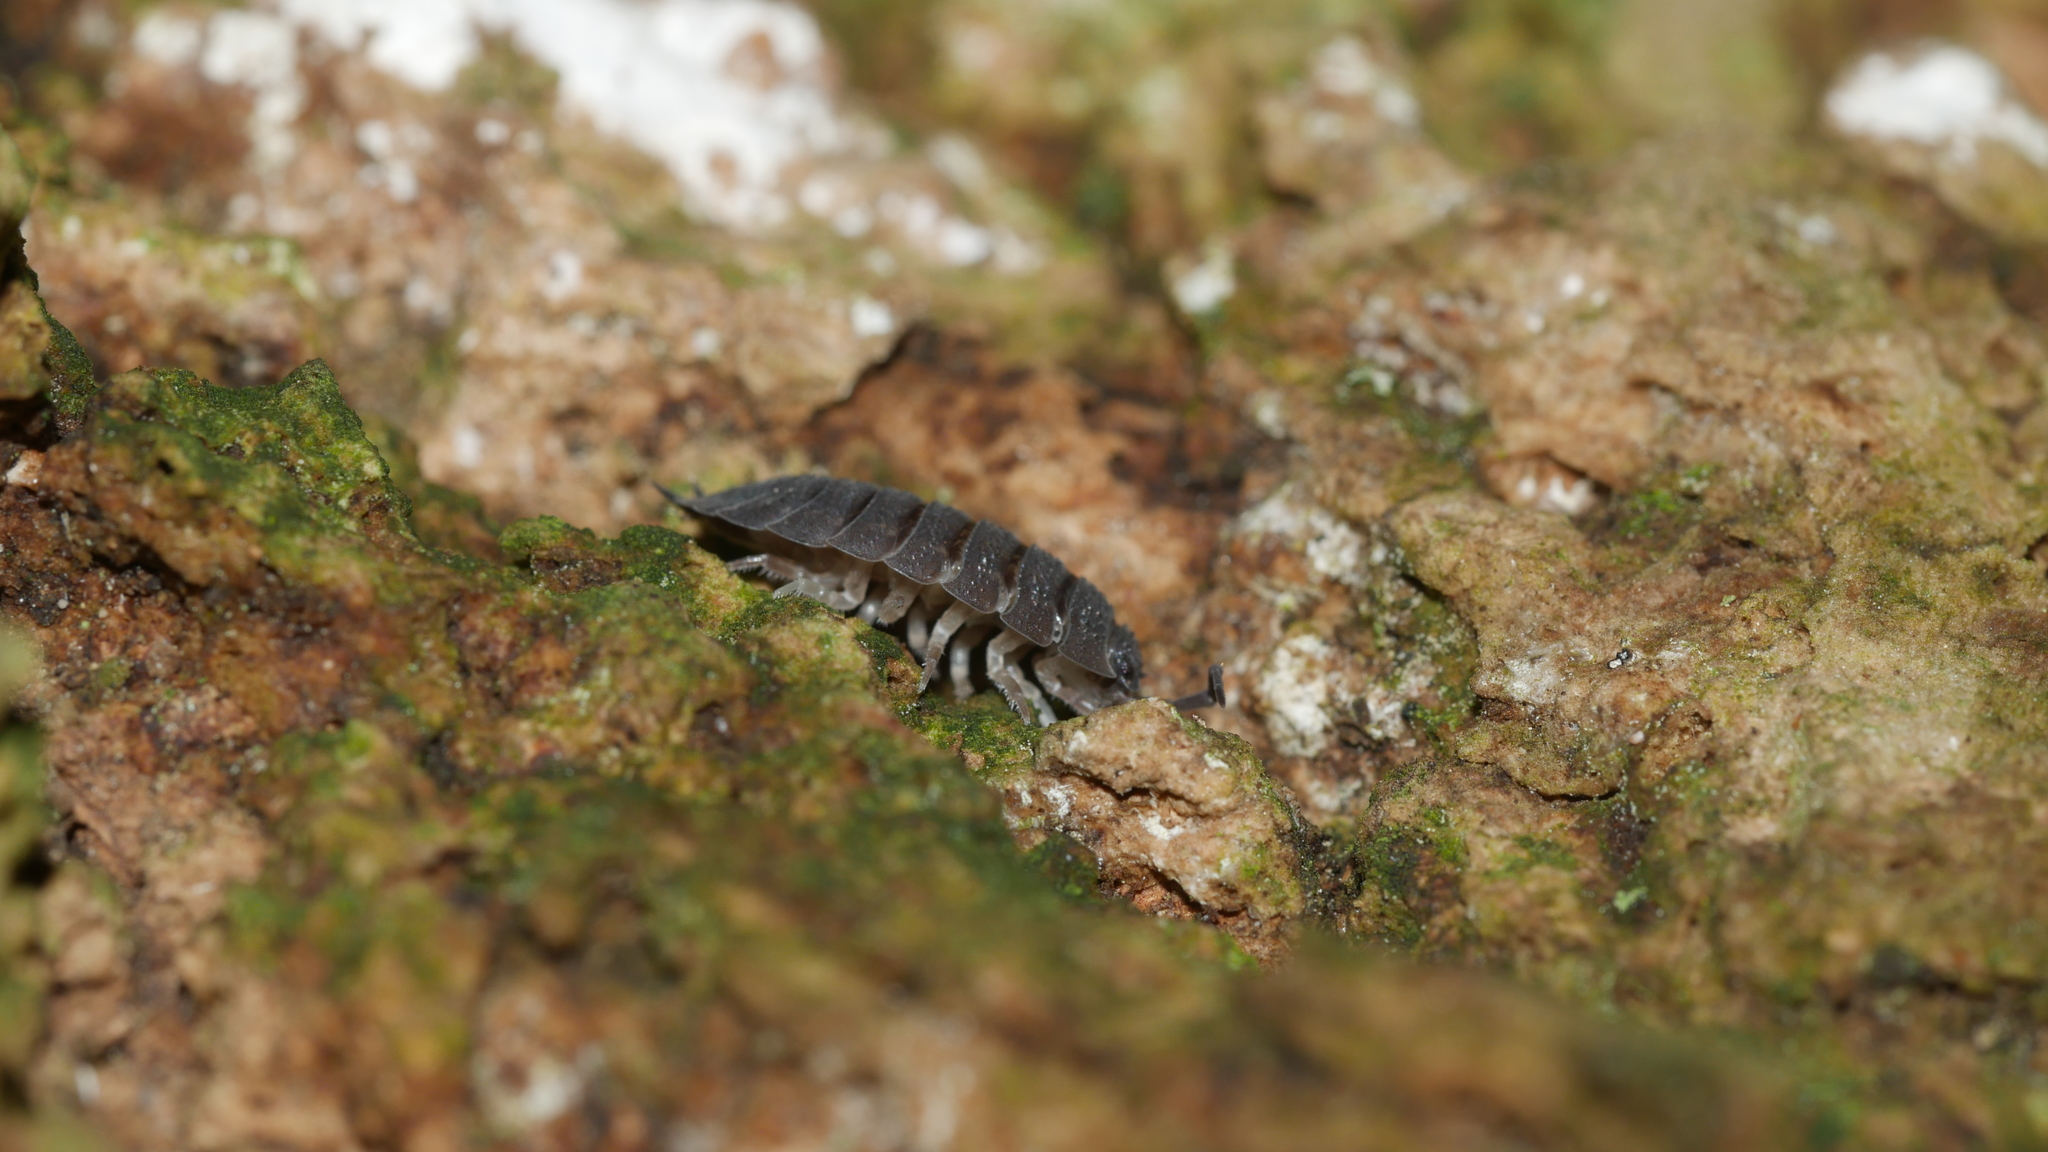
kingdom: Animalia
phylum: Arthropoda
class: Malacostraca
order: Isopoda
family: Porcellionidae
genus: Porcellio
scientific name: Porcellio scaber
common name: Common rough woodlouse
